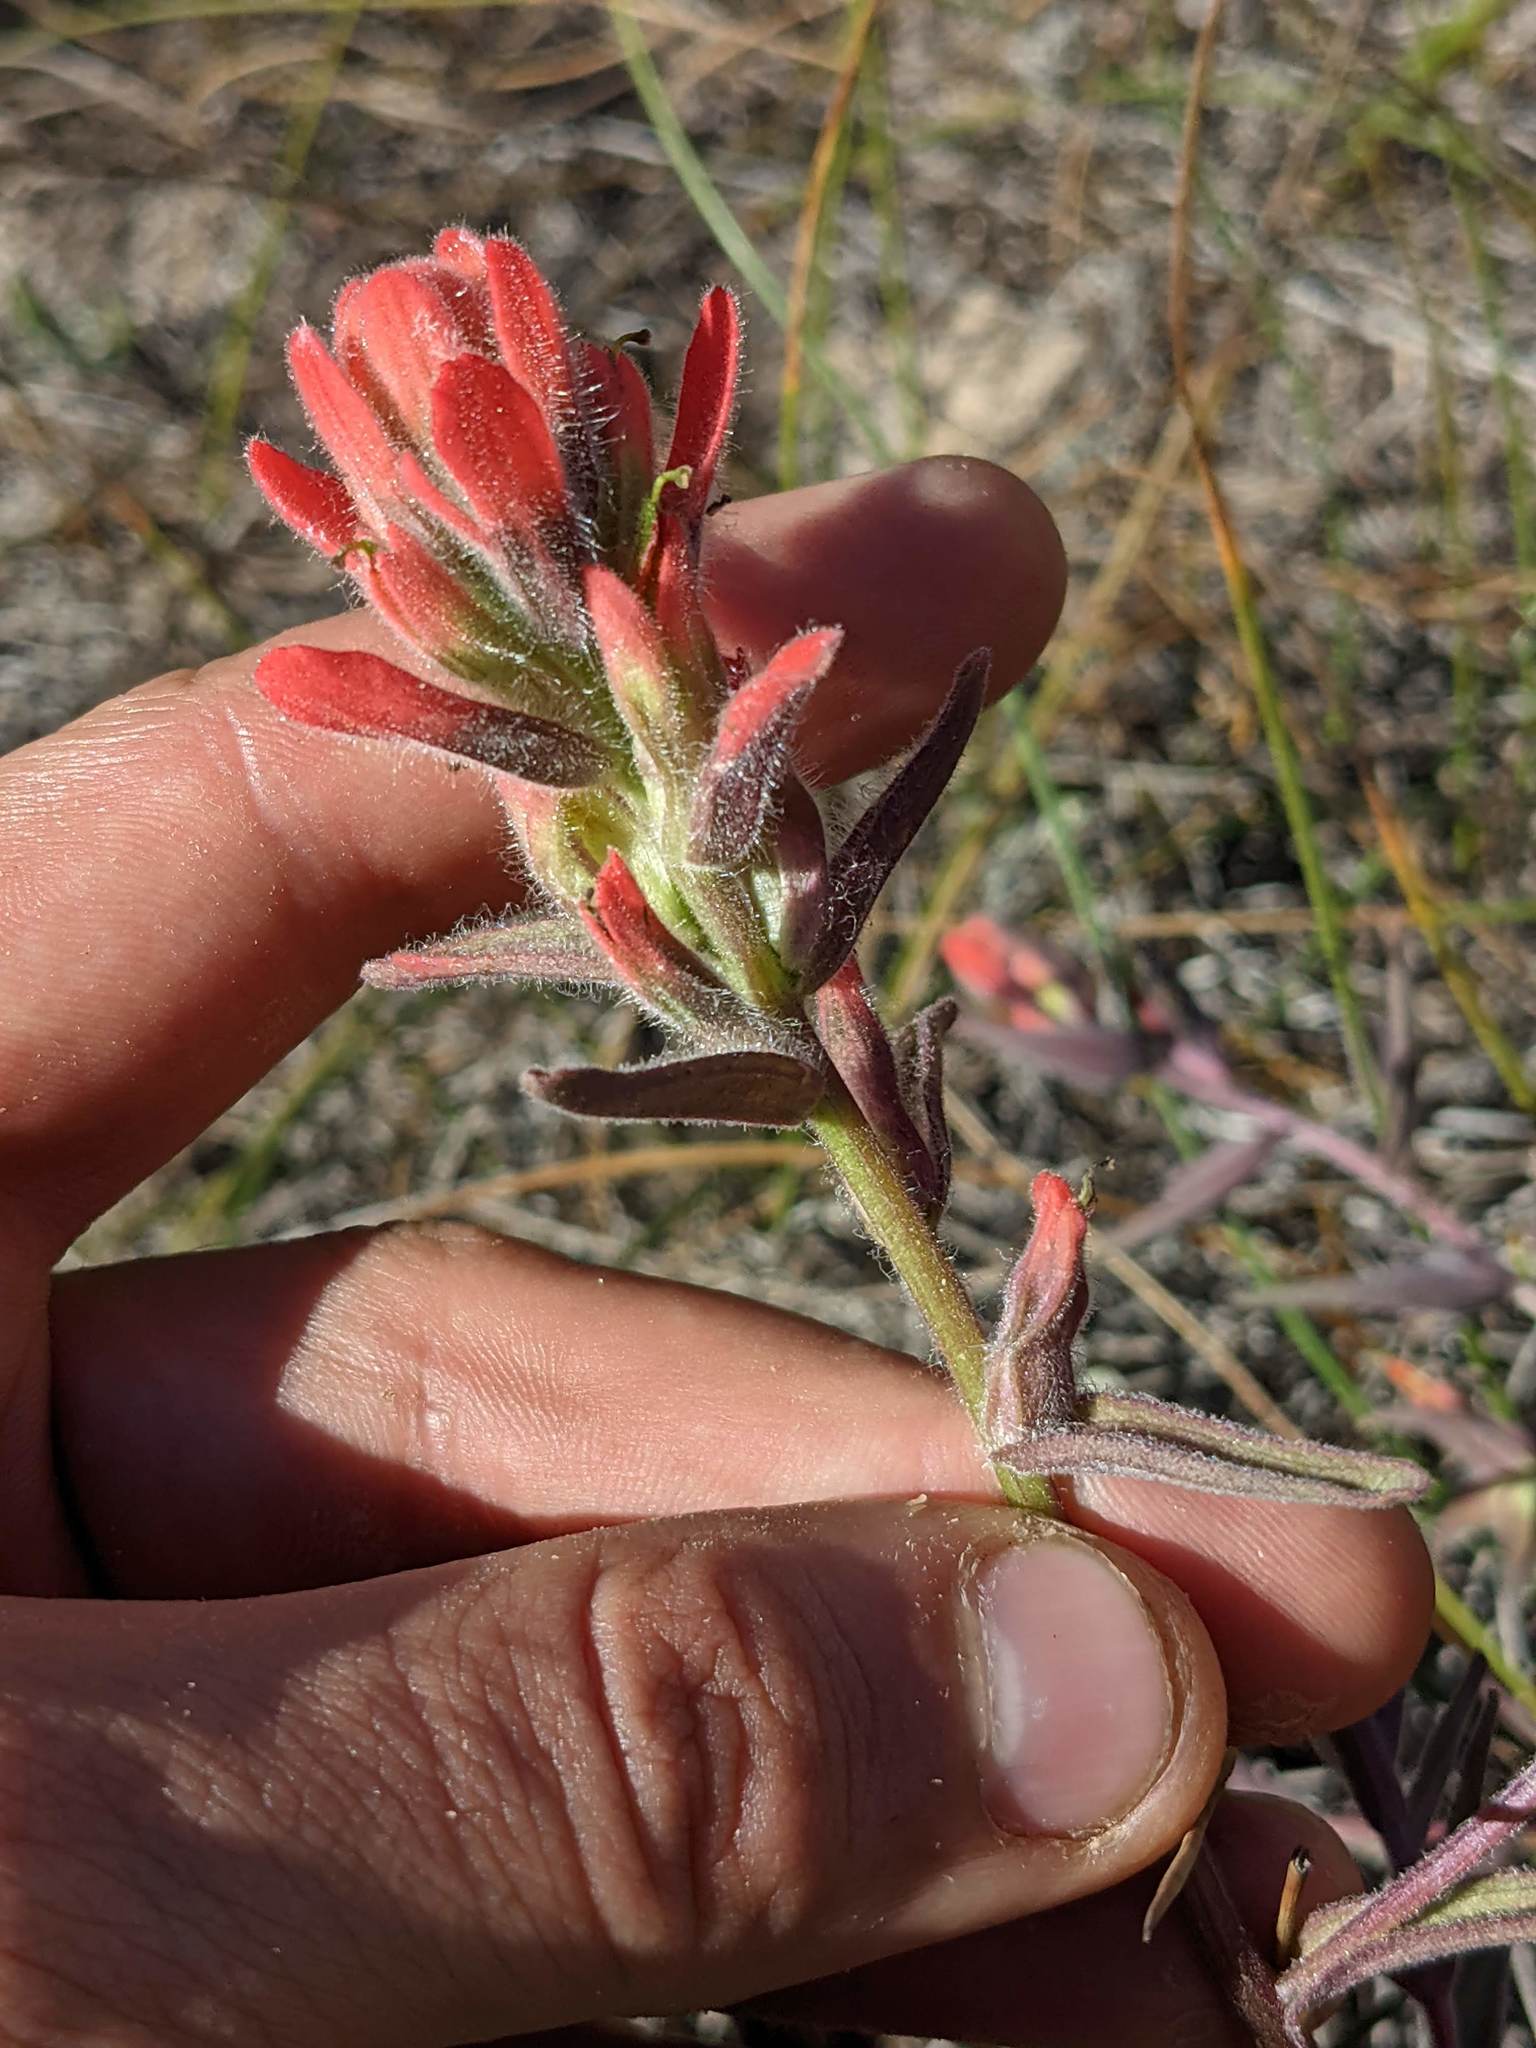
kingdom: Plantae
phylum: Tracheophyta
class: Magnoliopsida
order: Lamiales
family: Orobanchaceae
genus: Castilleja
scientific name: Castilleja affinis
